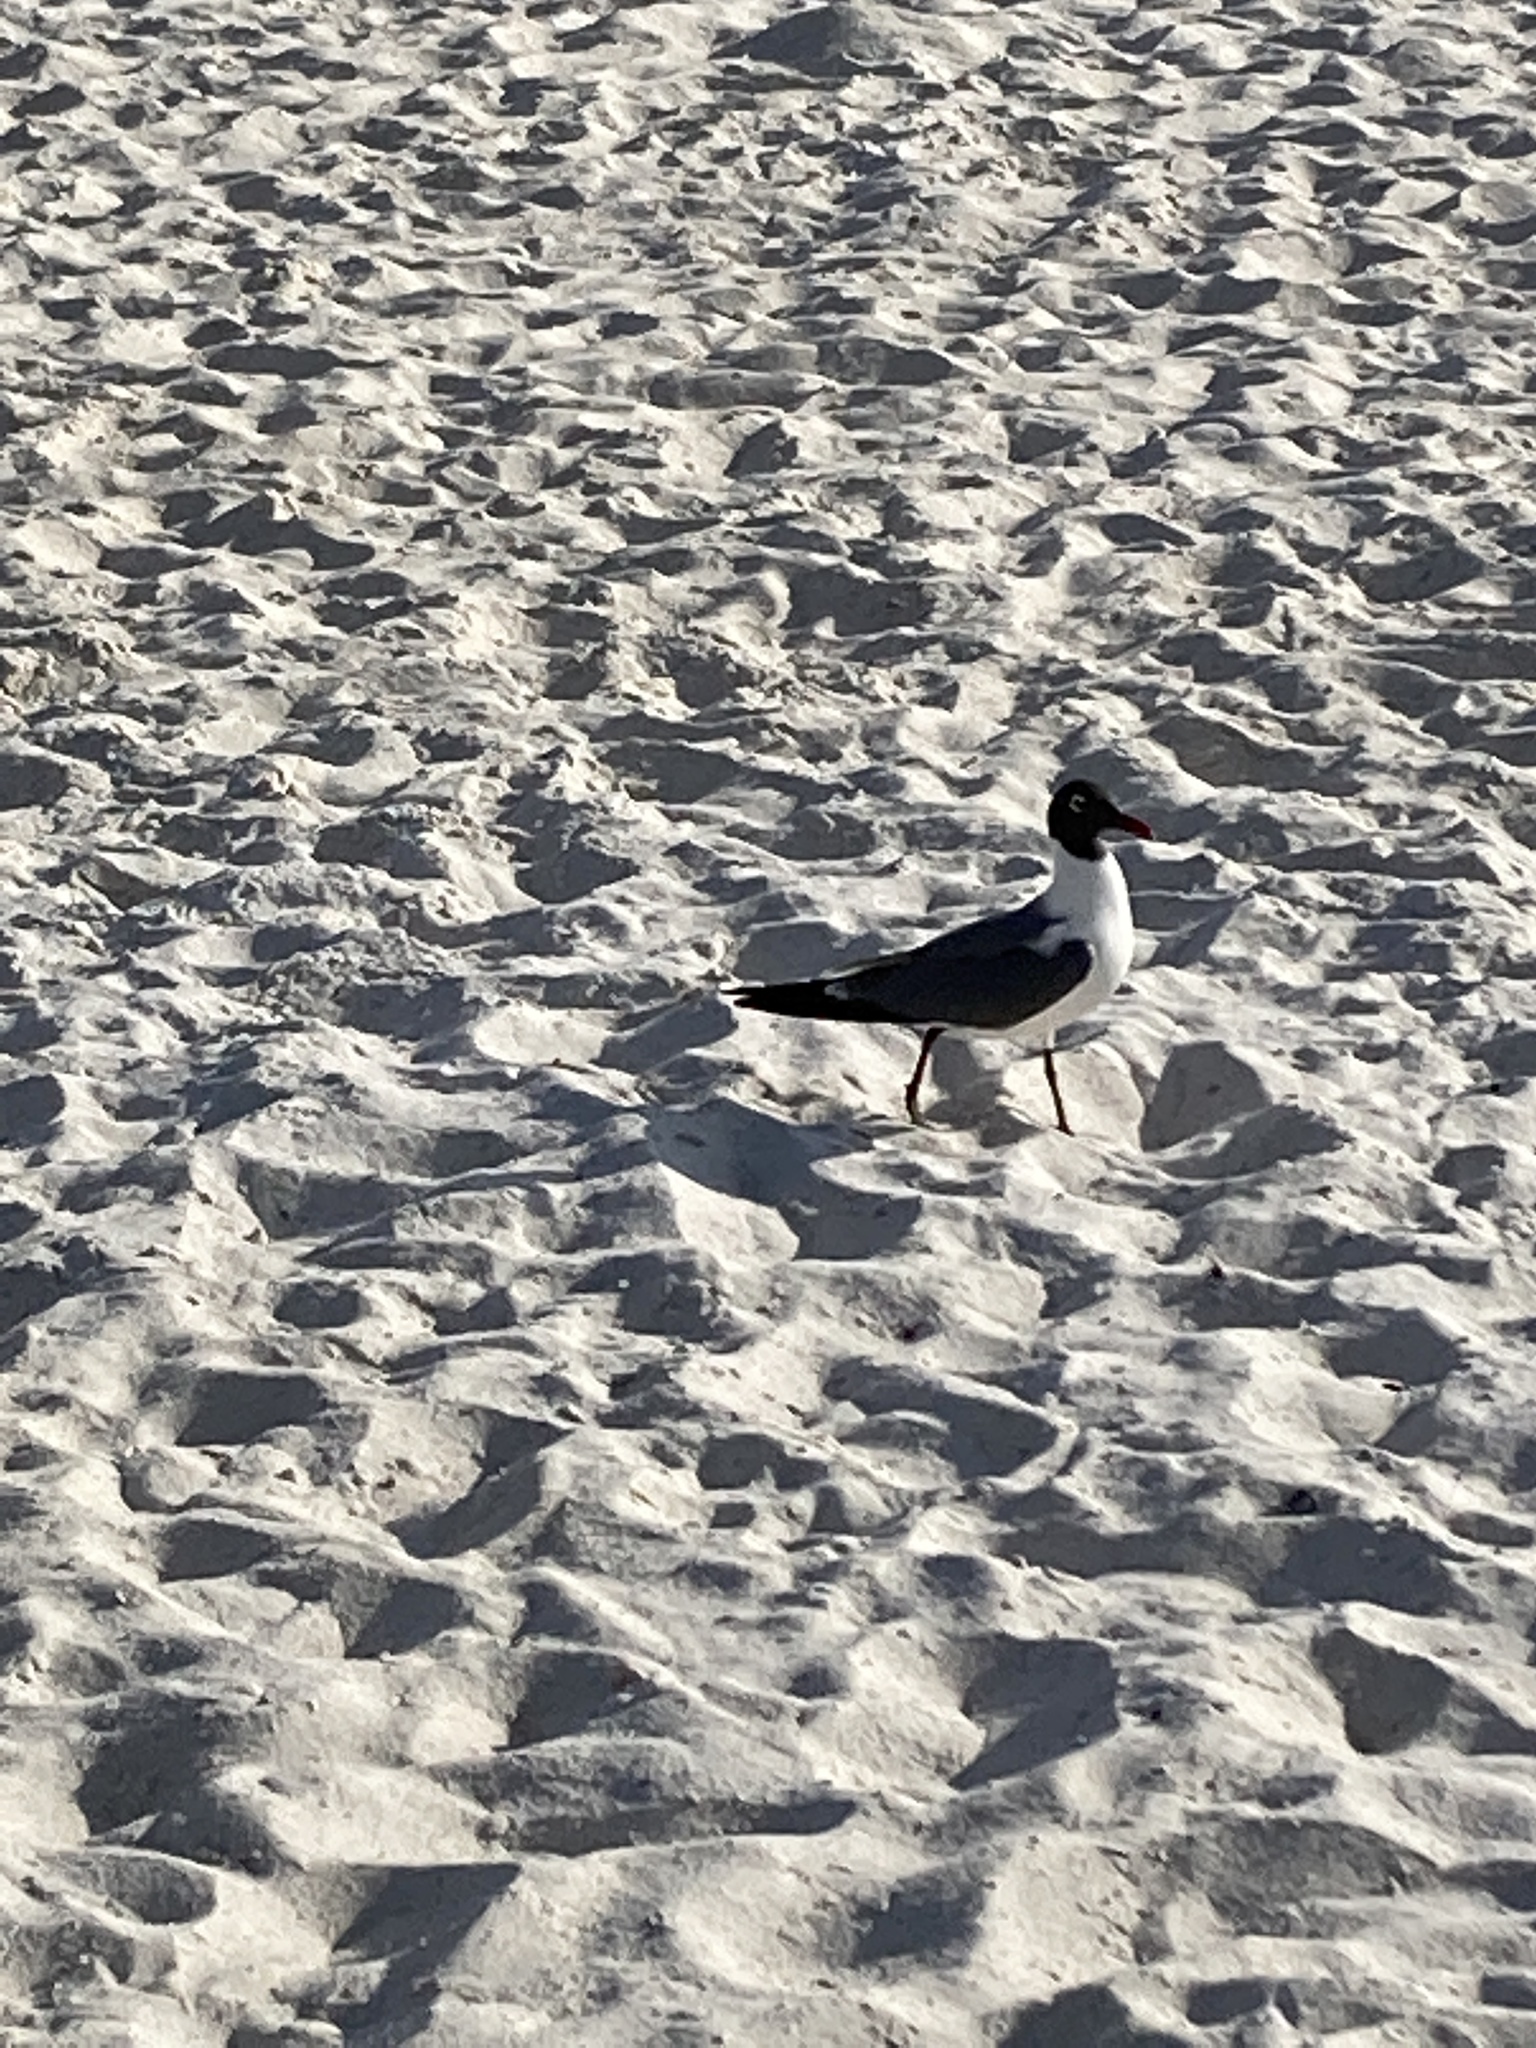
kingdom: Animalia
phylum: Chordata
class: Aves
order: Charadriiformes
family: Laridae
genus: Leucophaeus
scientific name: Leucophaeus atricilla
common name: Laughing gull
